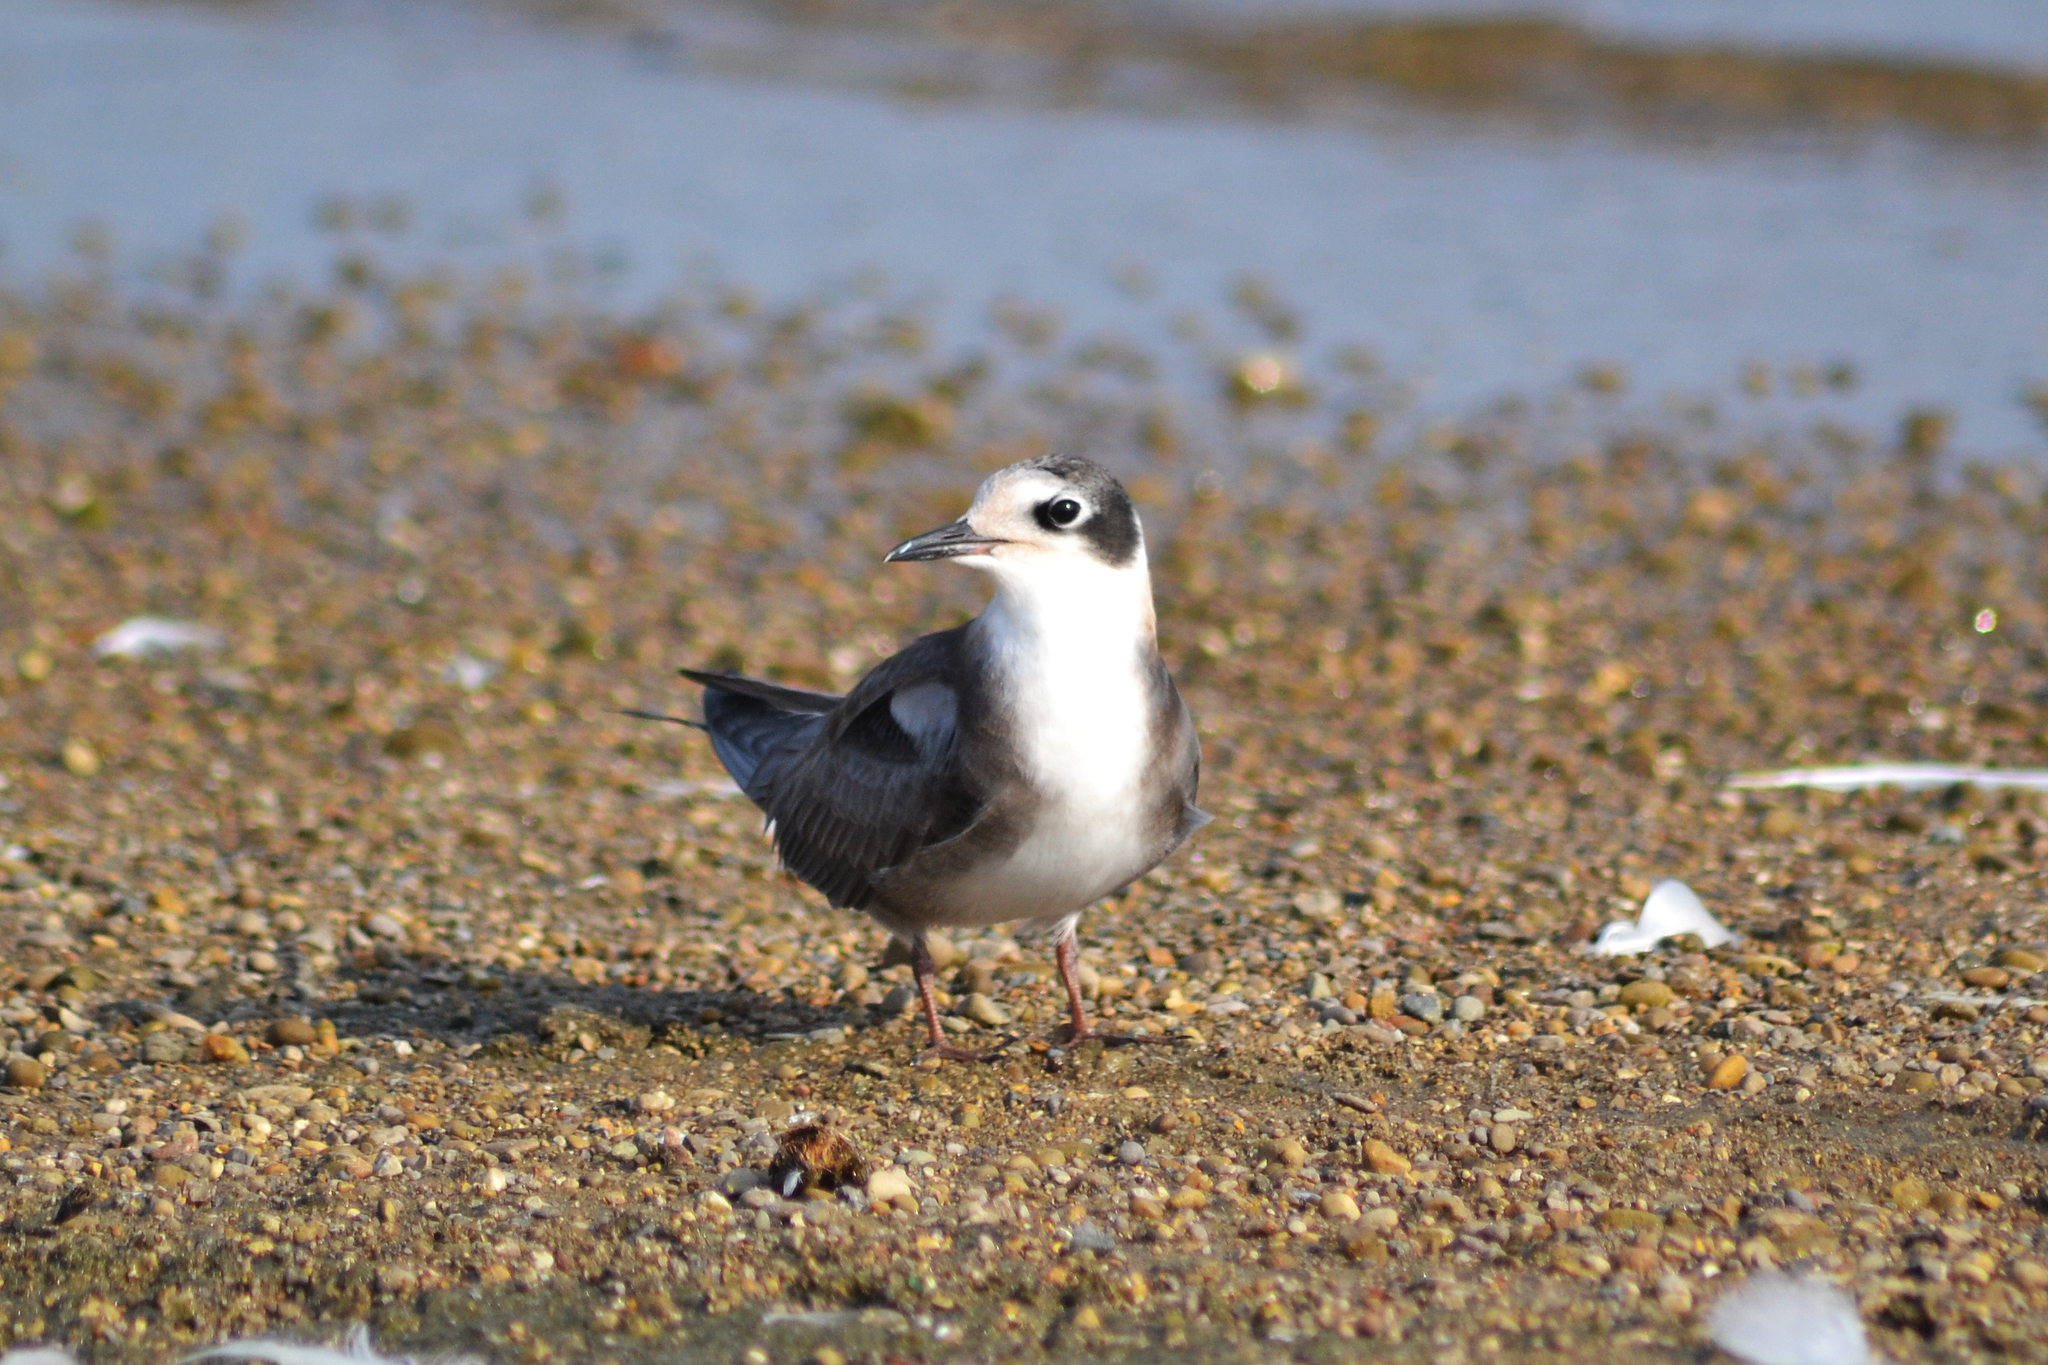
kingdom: Animalia
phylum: Chordata
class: Aves
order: Charadriiformes
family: Laridae
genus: Chlidonias
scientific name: Chlidonias niger
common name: Black tern
